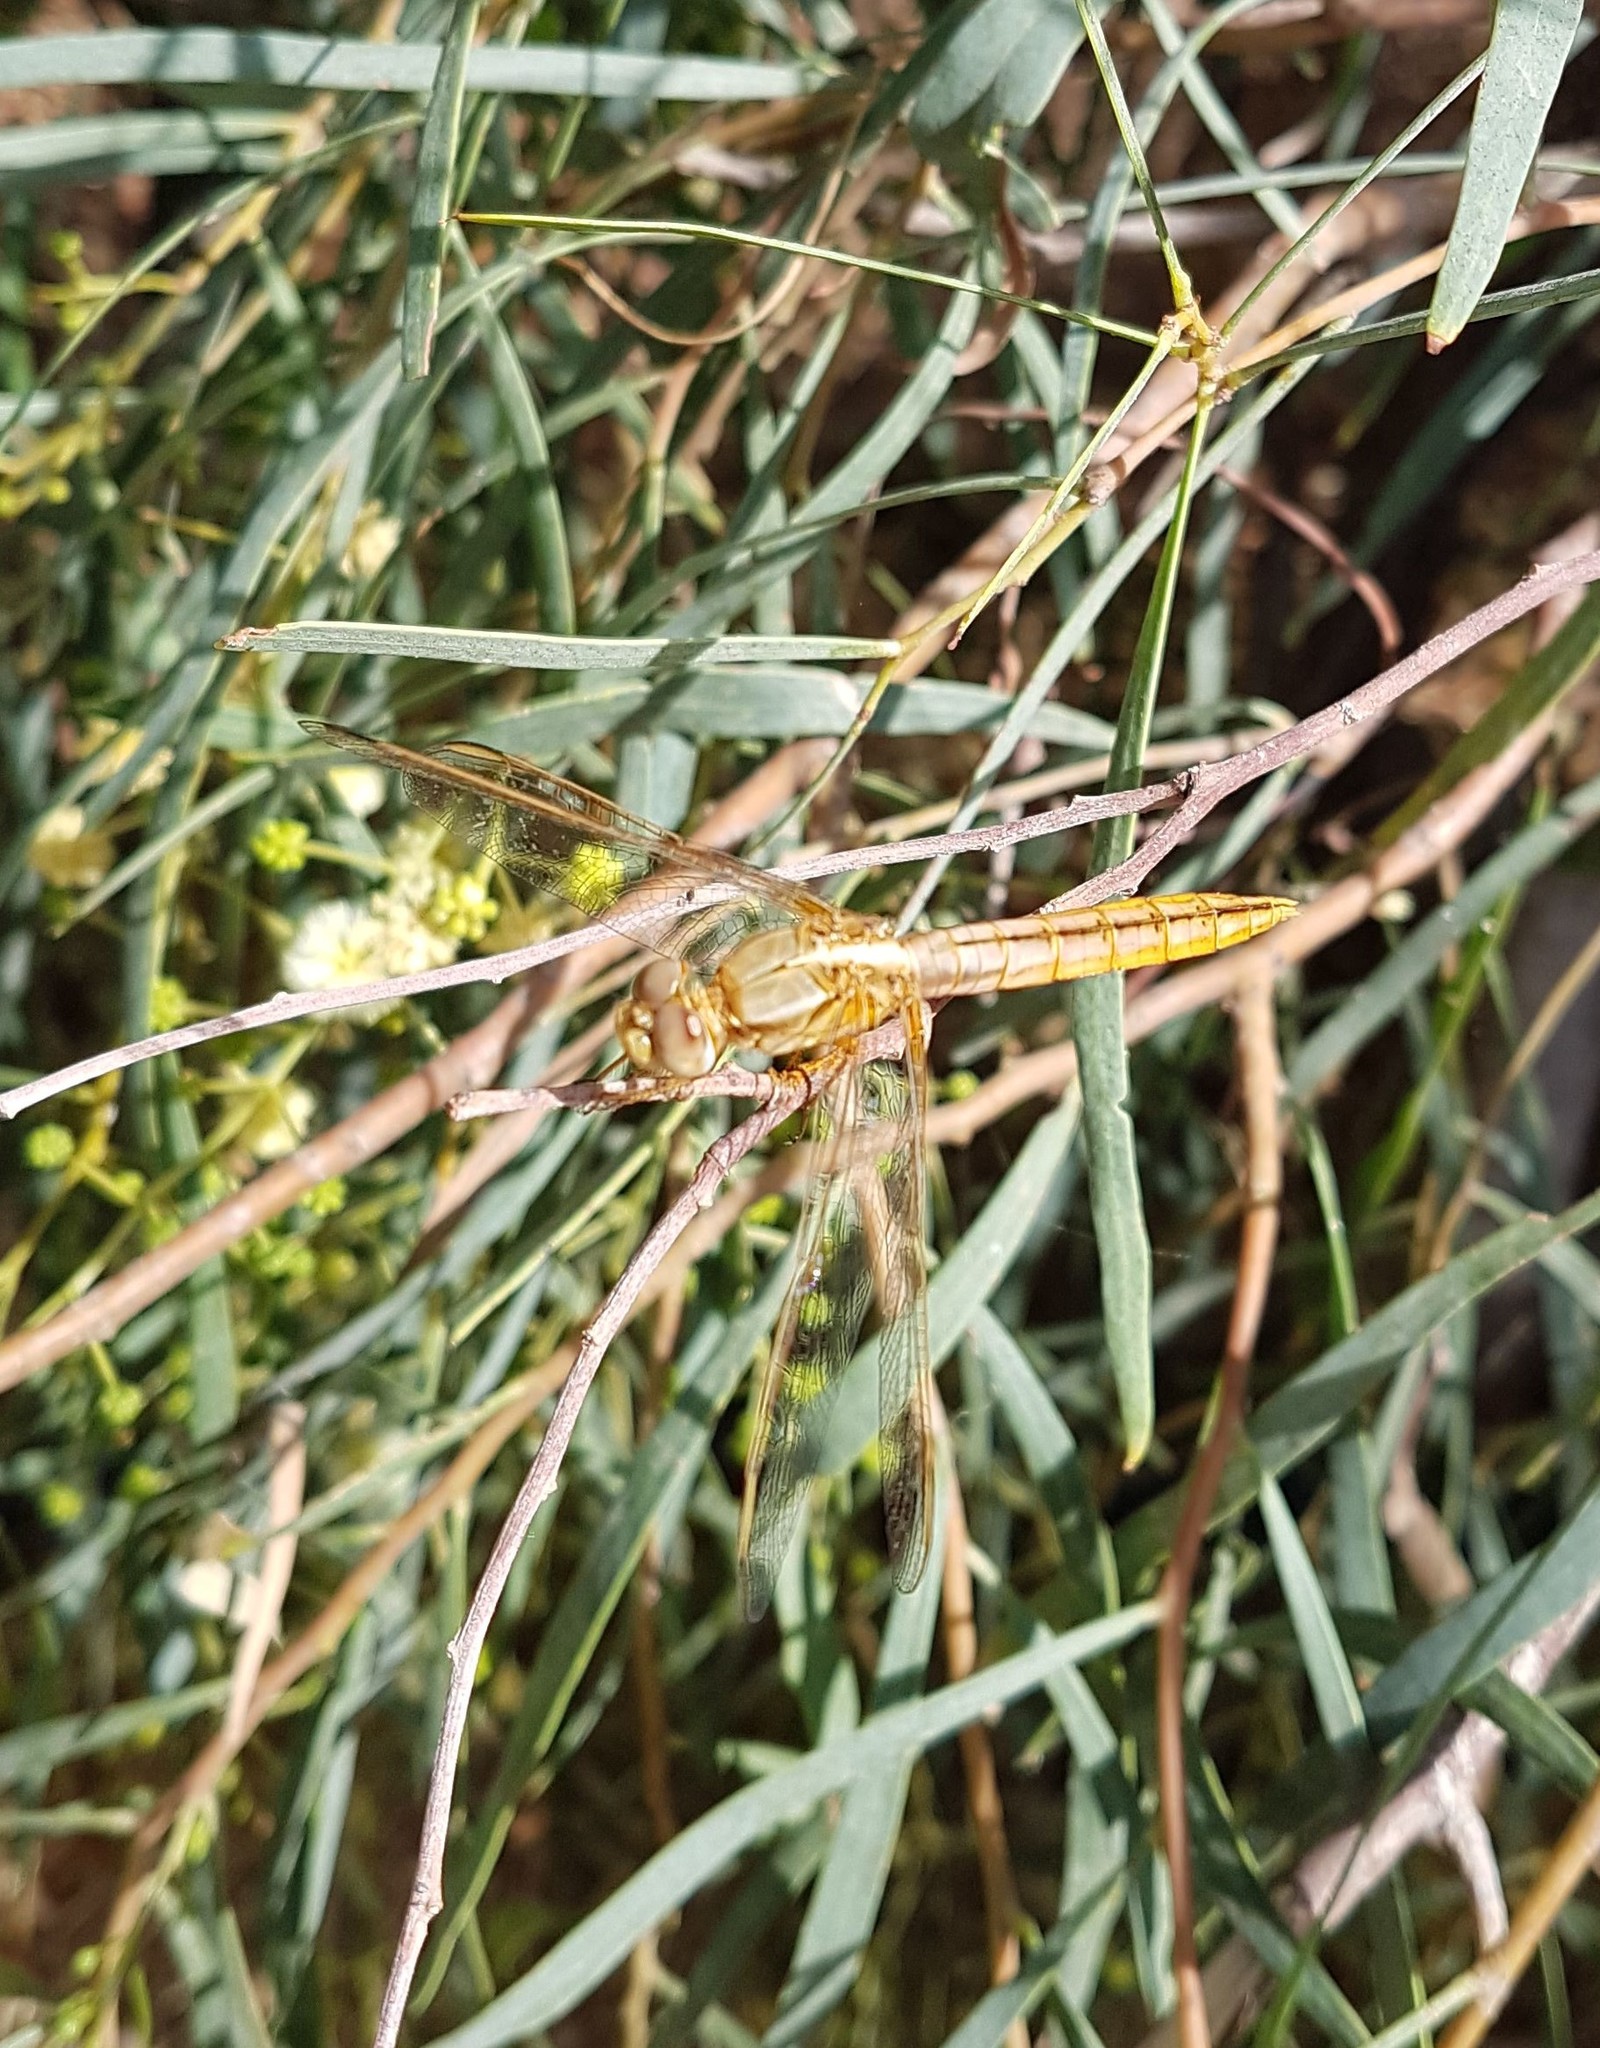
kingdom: Animalia
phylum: Arthropoda
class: Insecta
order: Odonata
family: Libellulidae
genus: Crocothemis
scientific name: Crocothemis erythraea
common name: Scarlet dragonfly
